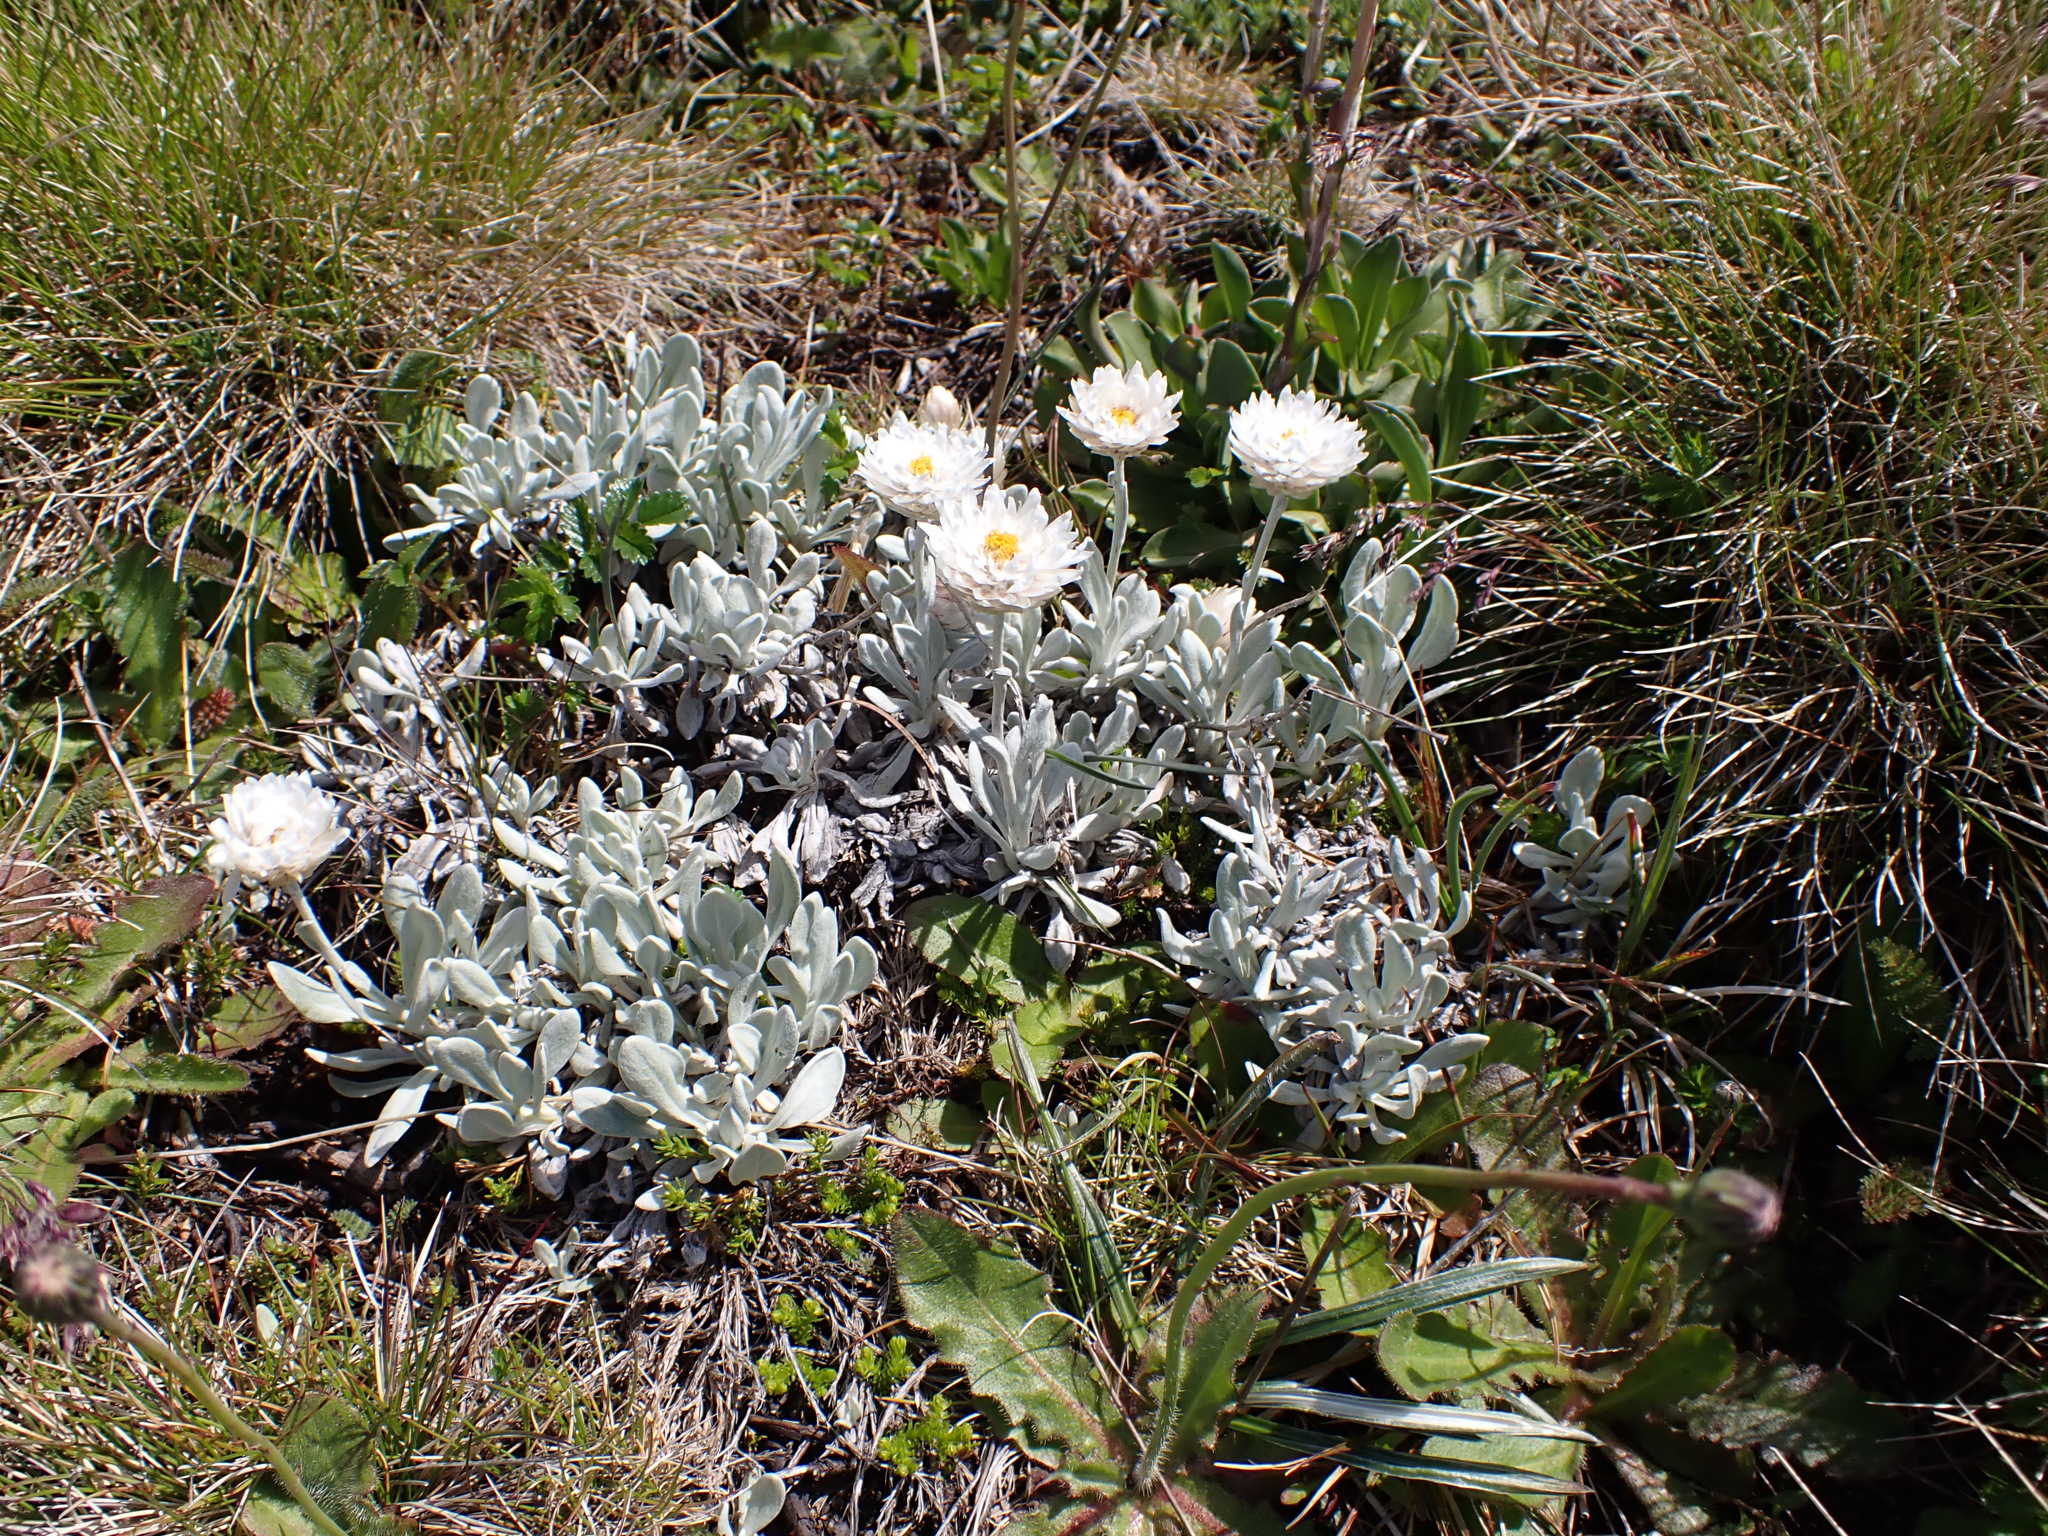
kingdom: Plantae
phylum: Tracheophyta
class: Magnoliopsida
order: Asterales
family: Asteraceae
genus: Leucochrysum
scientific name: Leucochrysum alpinum
